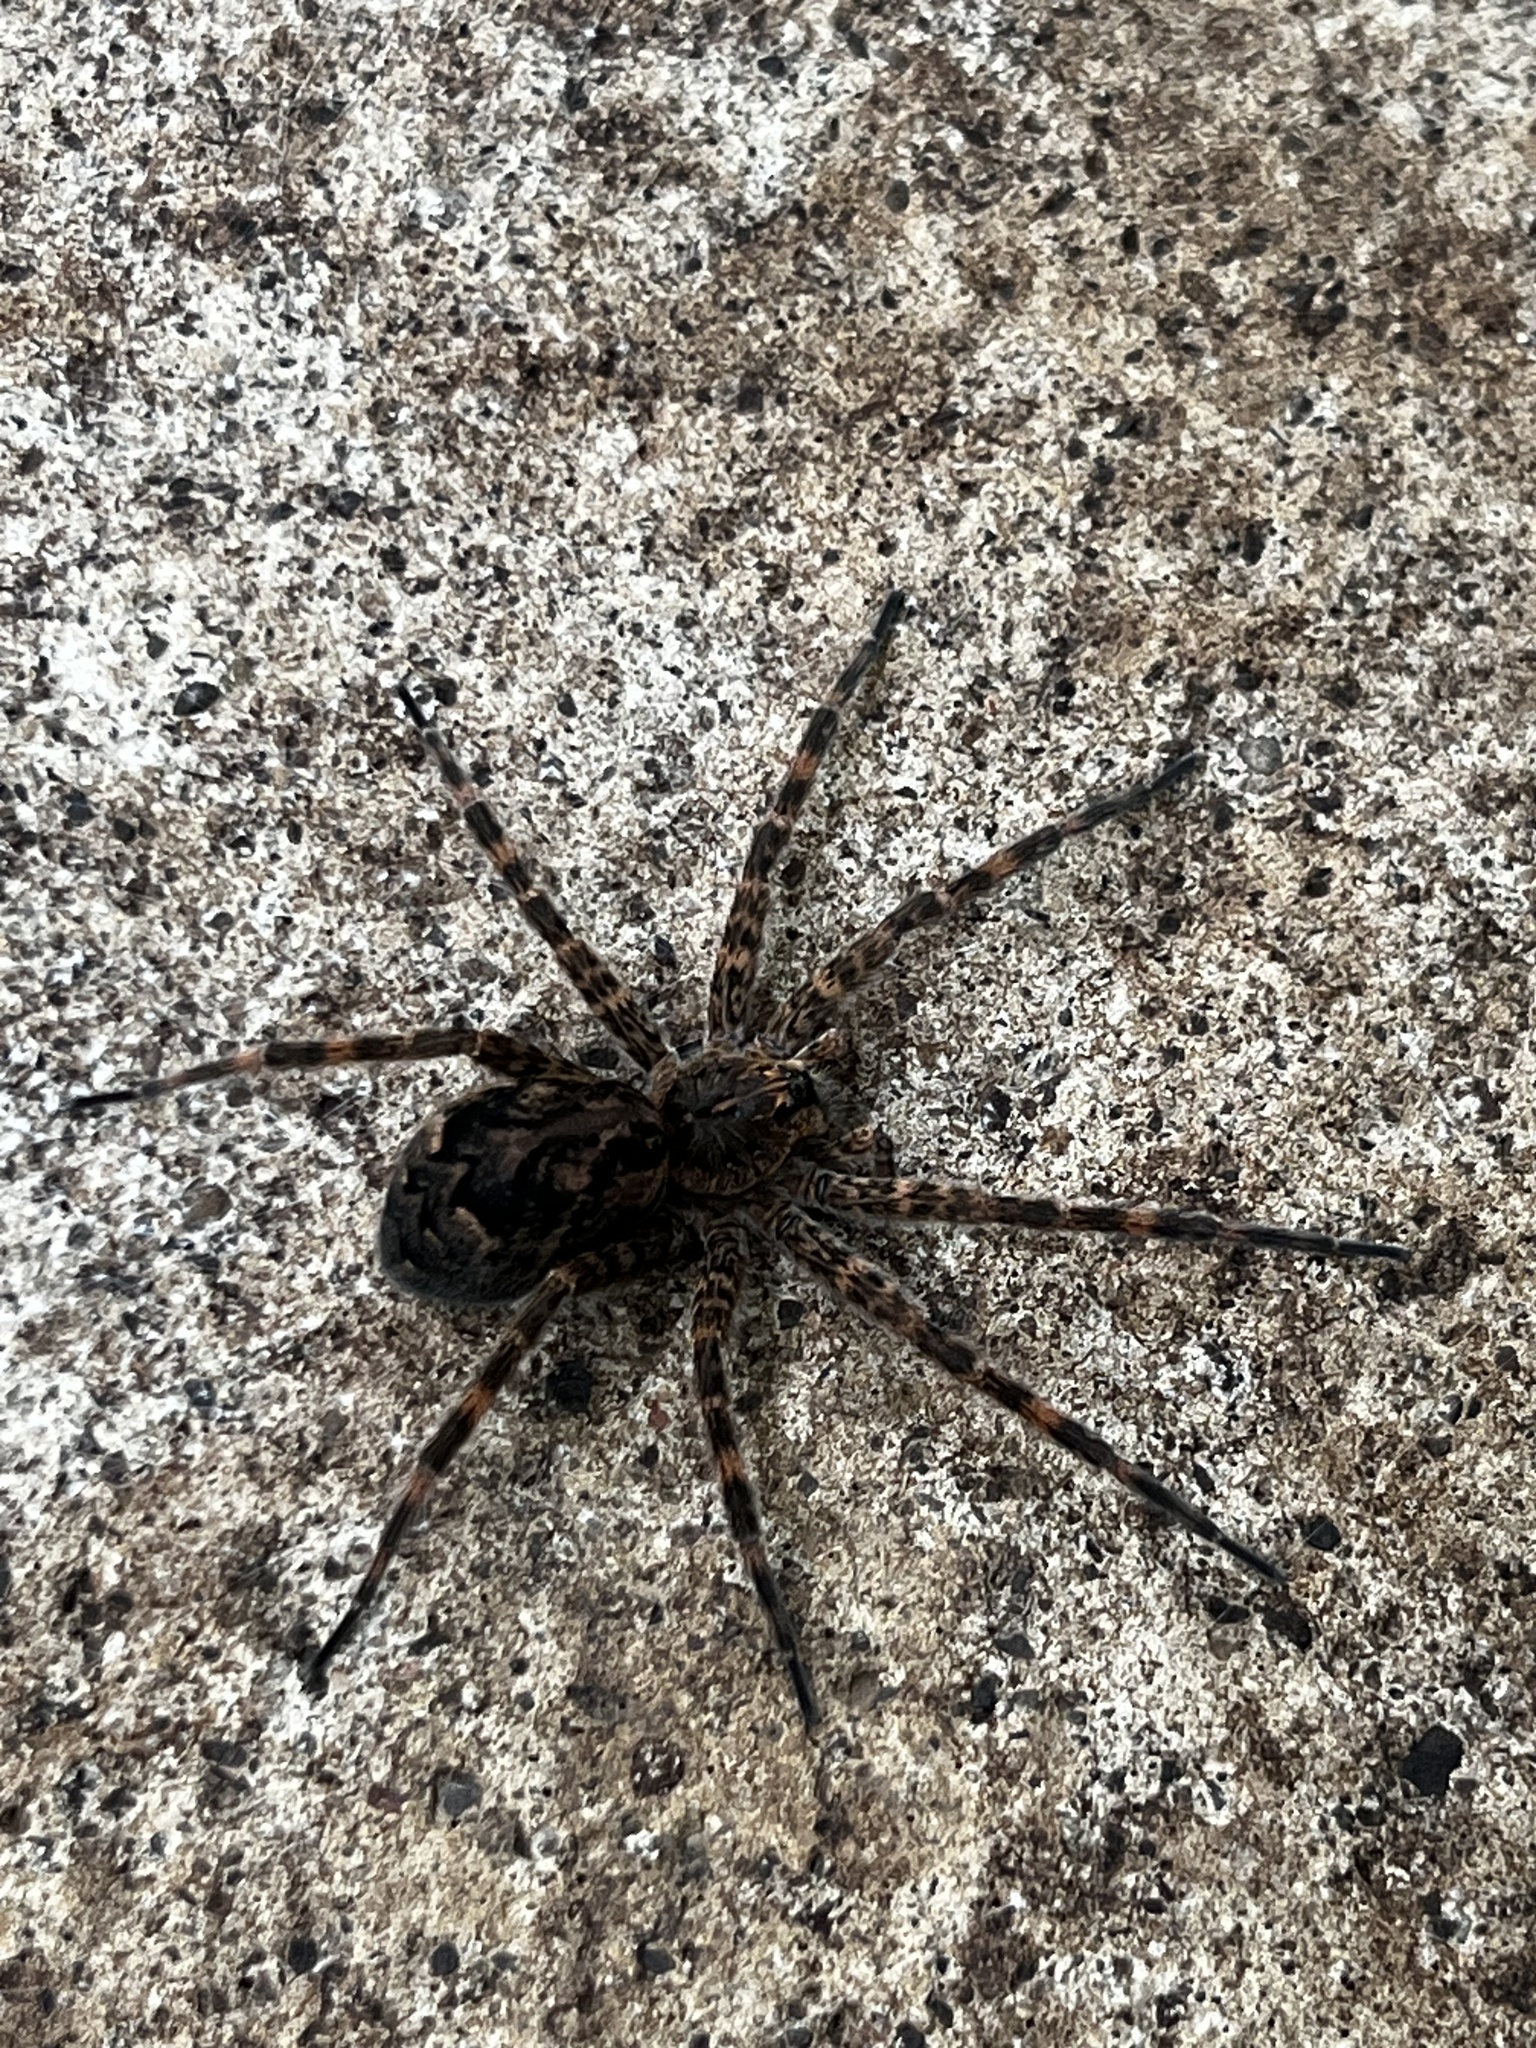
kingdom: Animalia
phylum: Arthropoda
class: Arachnida
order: Araneae
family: Pisauridae
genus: Dolomedes
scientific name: Dolomedes tenebrosus
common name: Dark fishing spider
